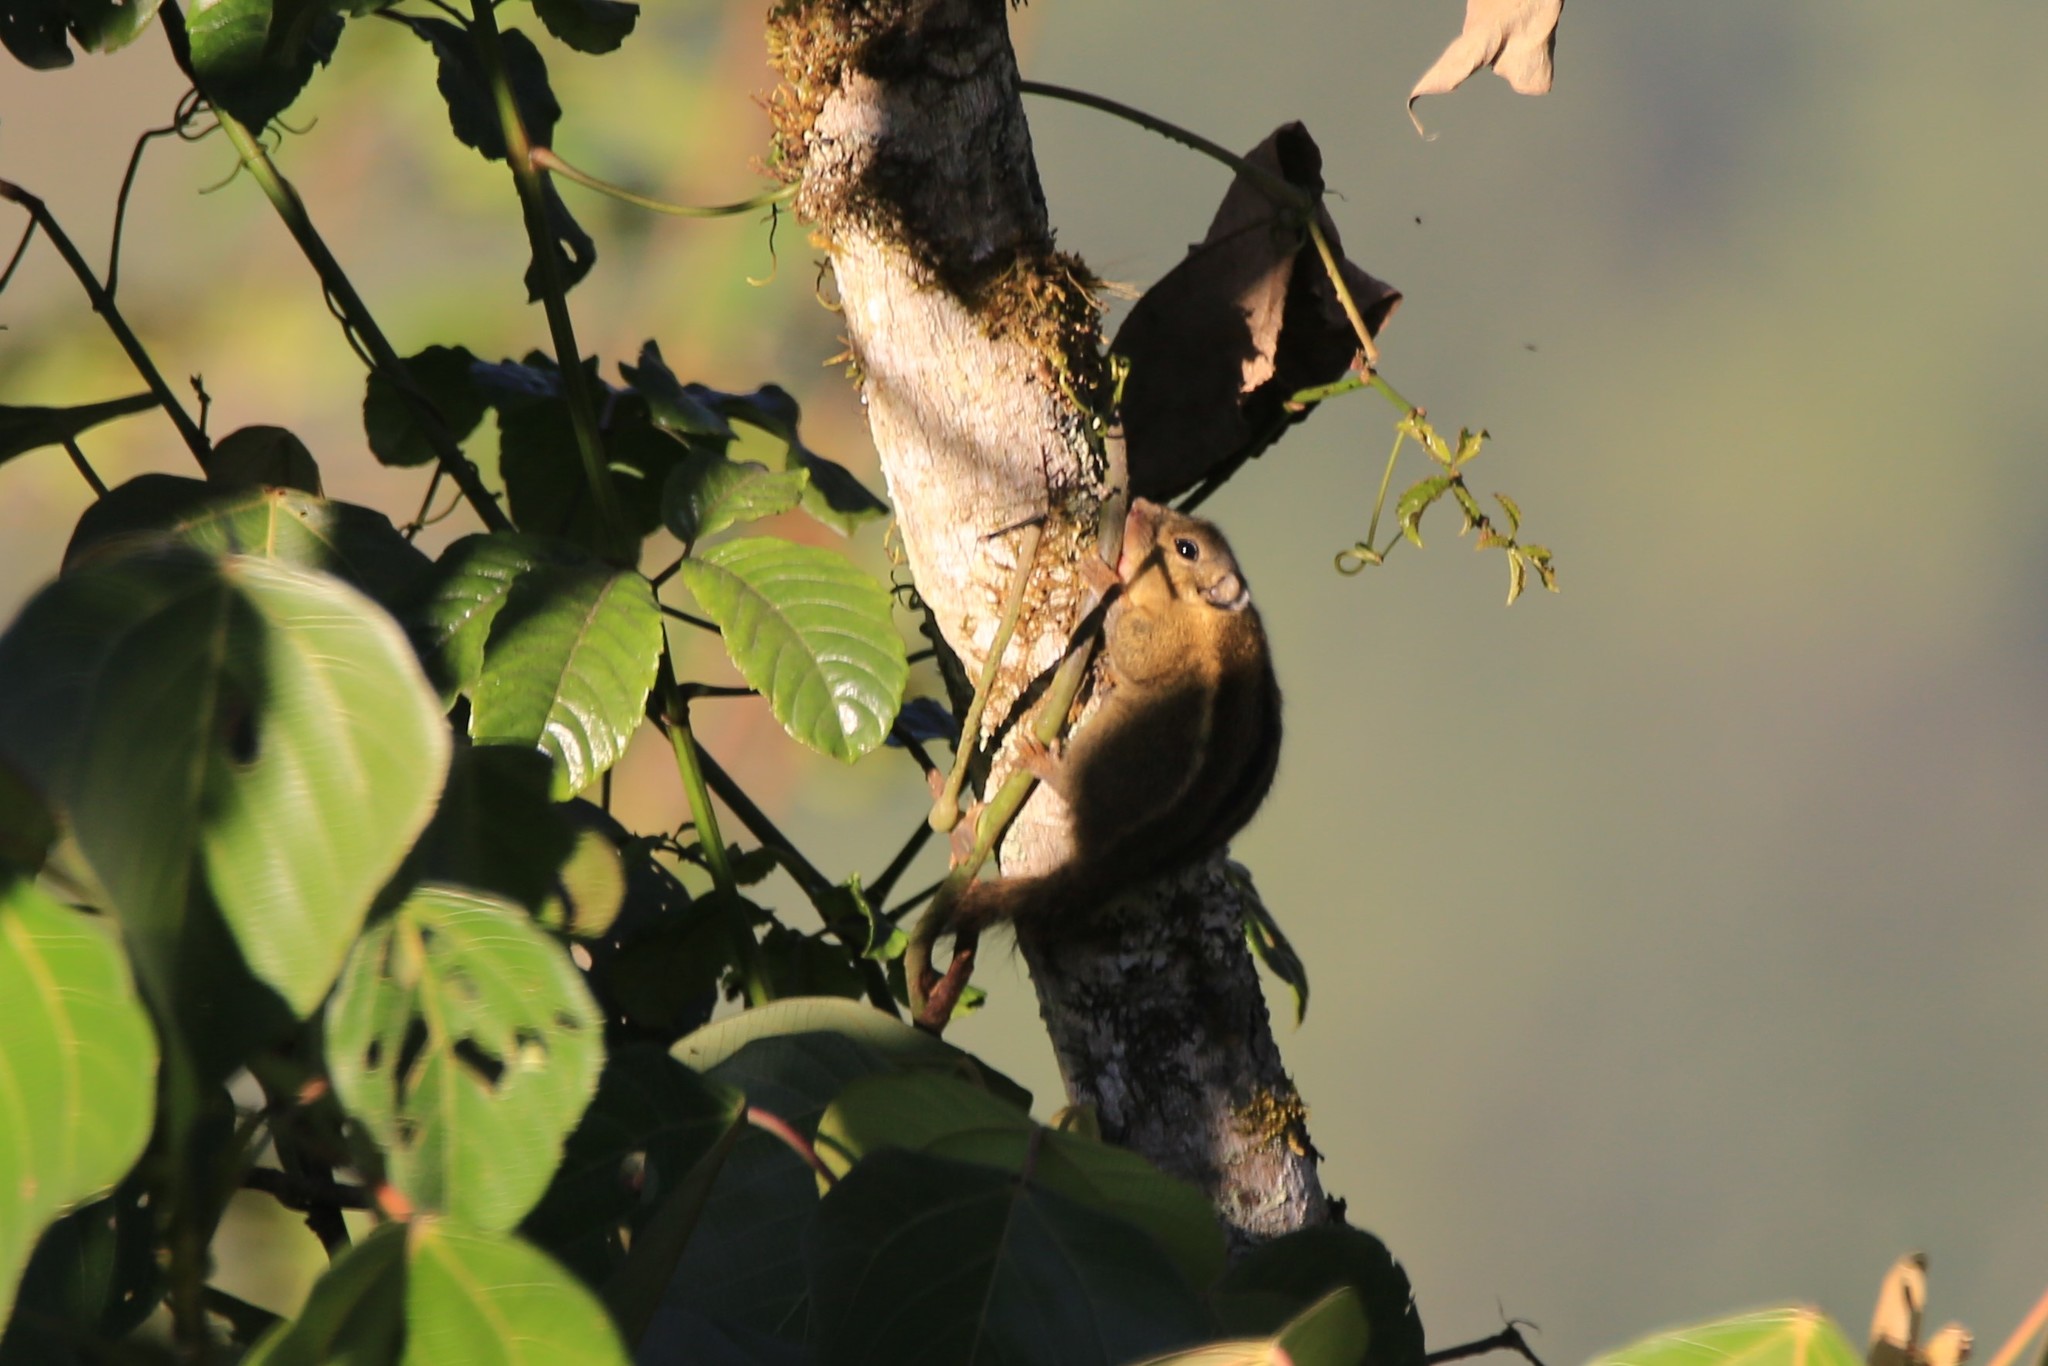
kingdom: Animalia
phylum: Chordata
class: Mammalia
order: Rodentia
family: Sciuridae
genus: Tamiops
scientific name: Tamiops mcclellandii
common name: Himalayan striped squirrel
